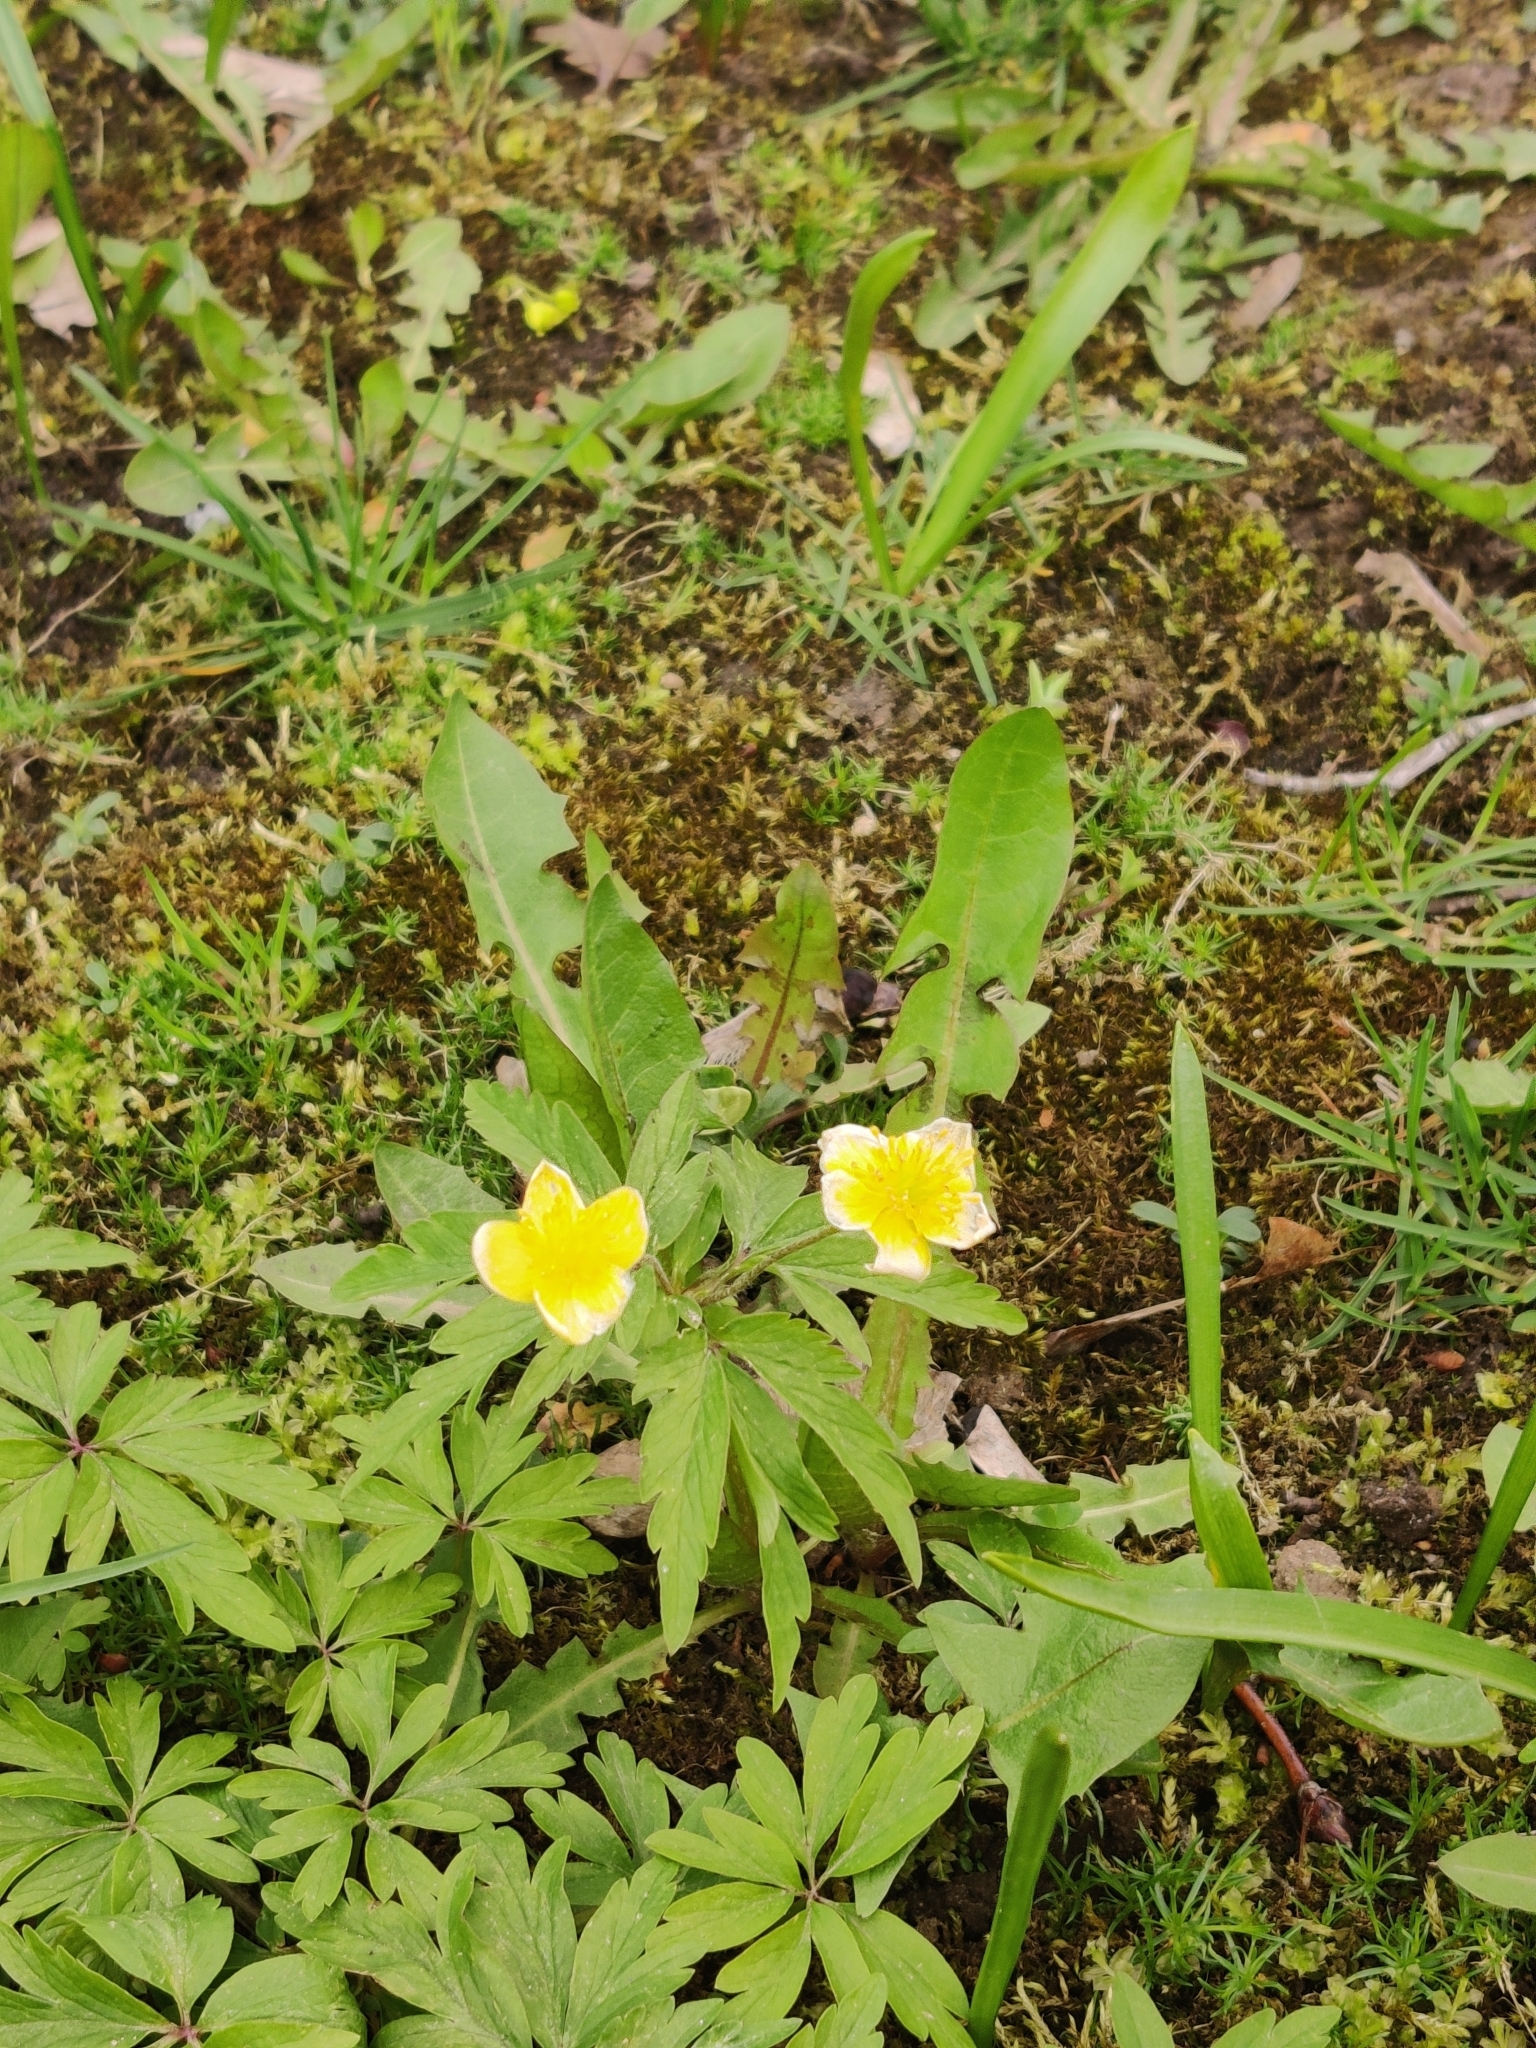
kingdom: Plantae
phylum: Tracheophyta
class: Magnoliopsida
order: Ranunculales
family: Ranunculaceae
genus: Anemone
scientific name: Anemone ranunculoides
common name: Yellow anemone
